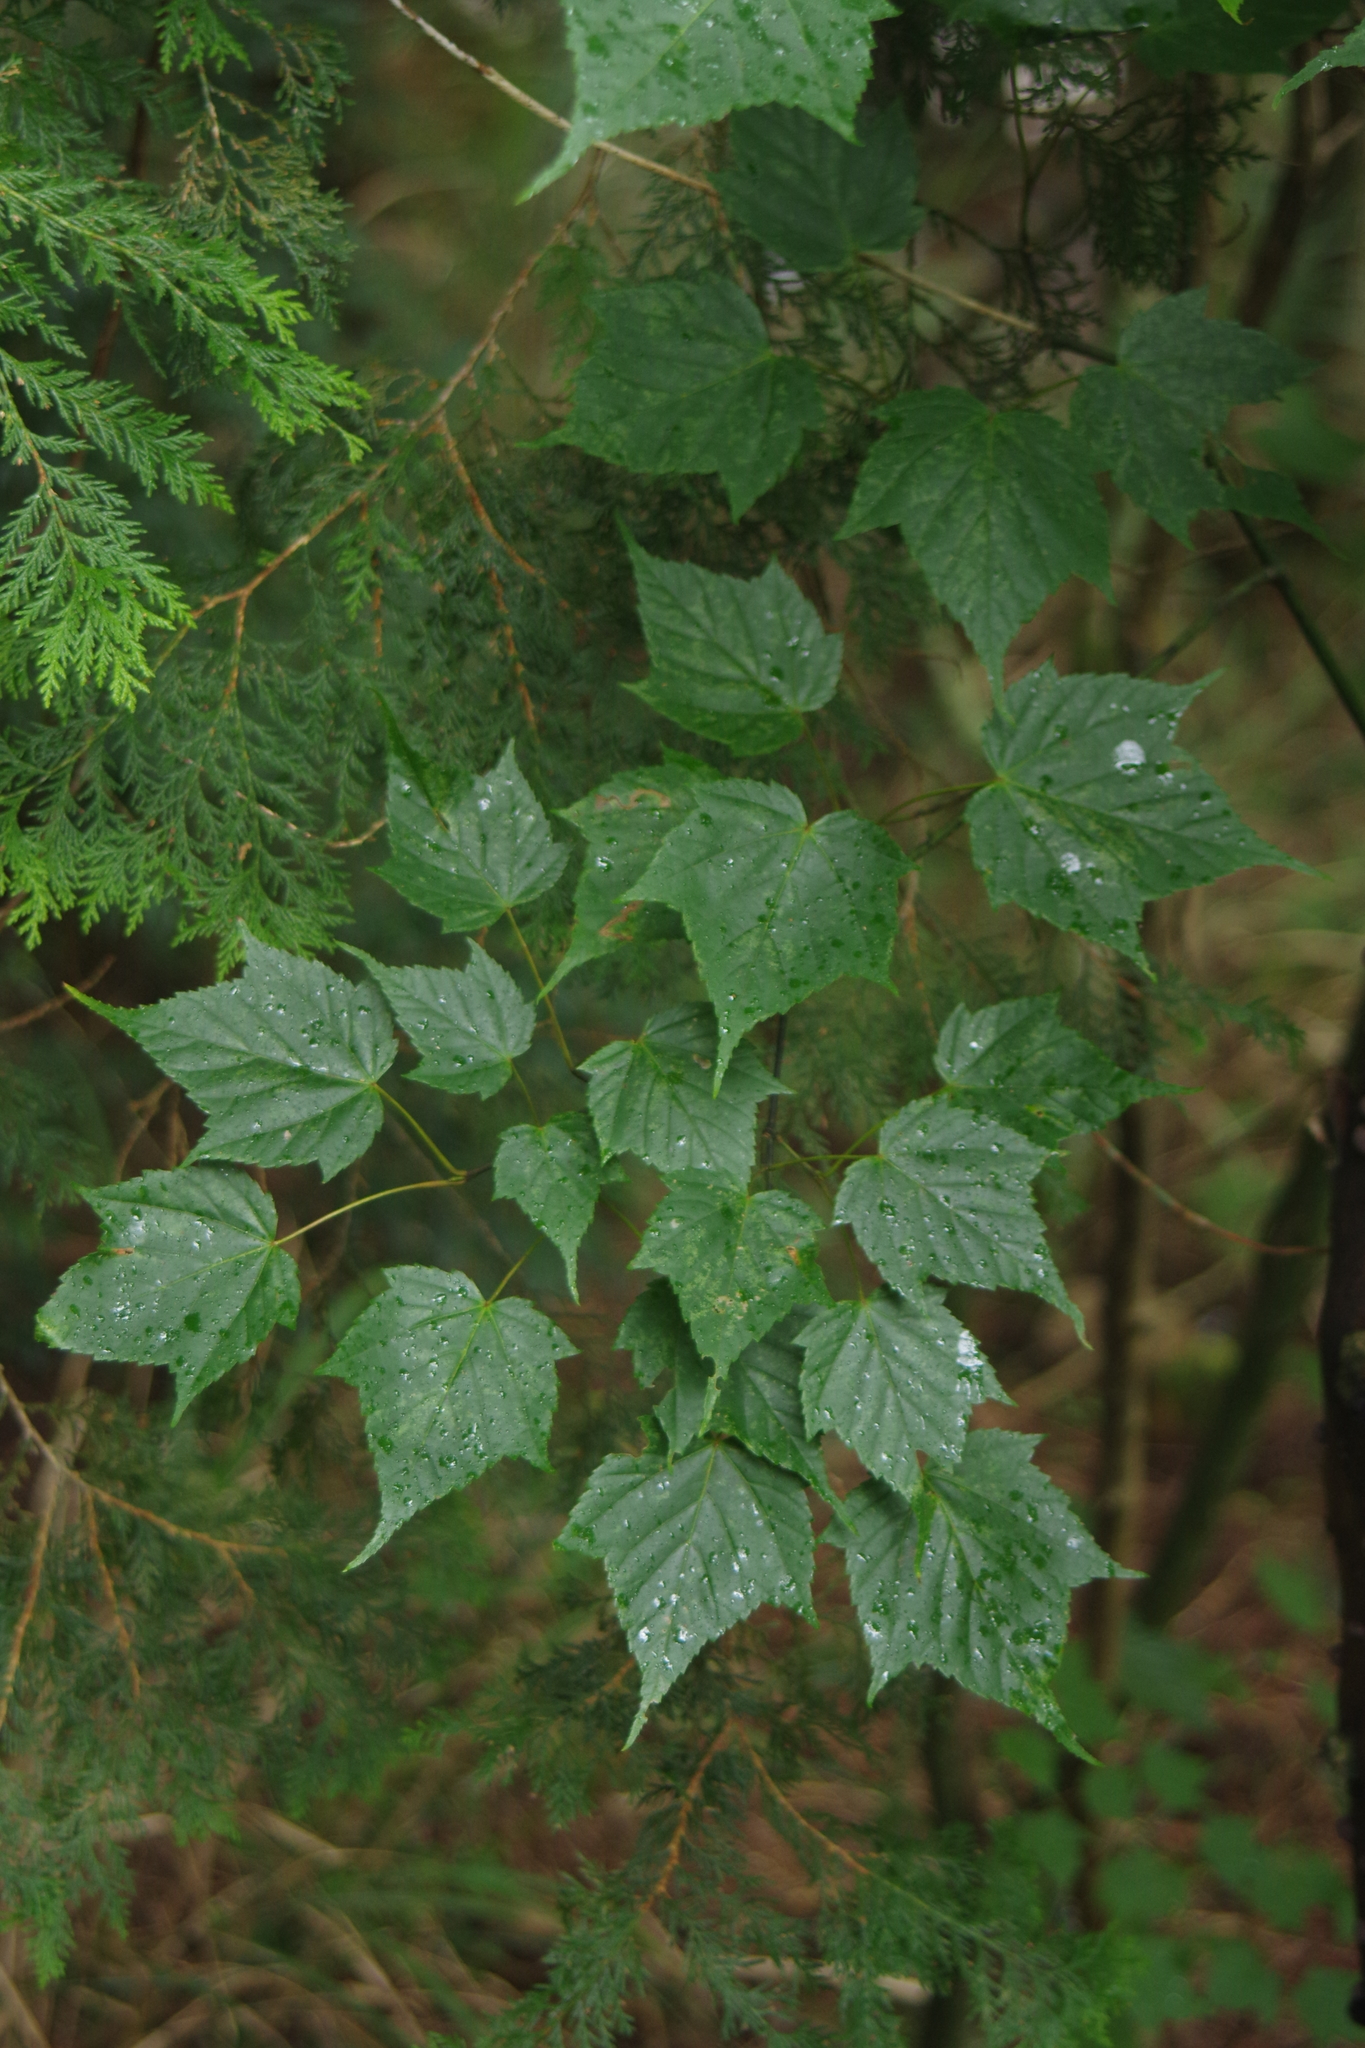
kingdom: Plantae
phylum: Tracheophyta
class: Magnoliopsida
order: Sapindales
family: Sapindaceae
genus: Acer
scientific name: Acer caudatifolium
